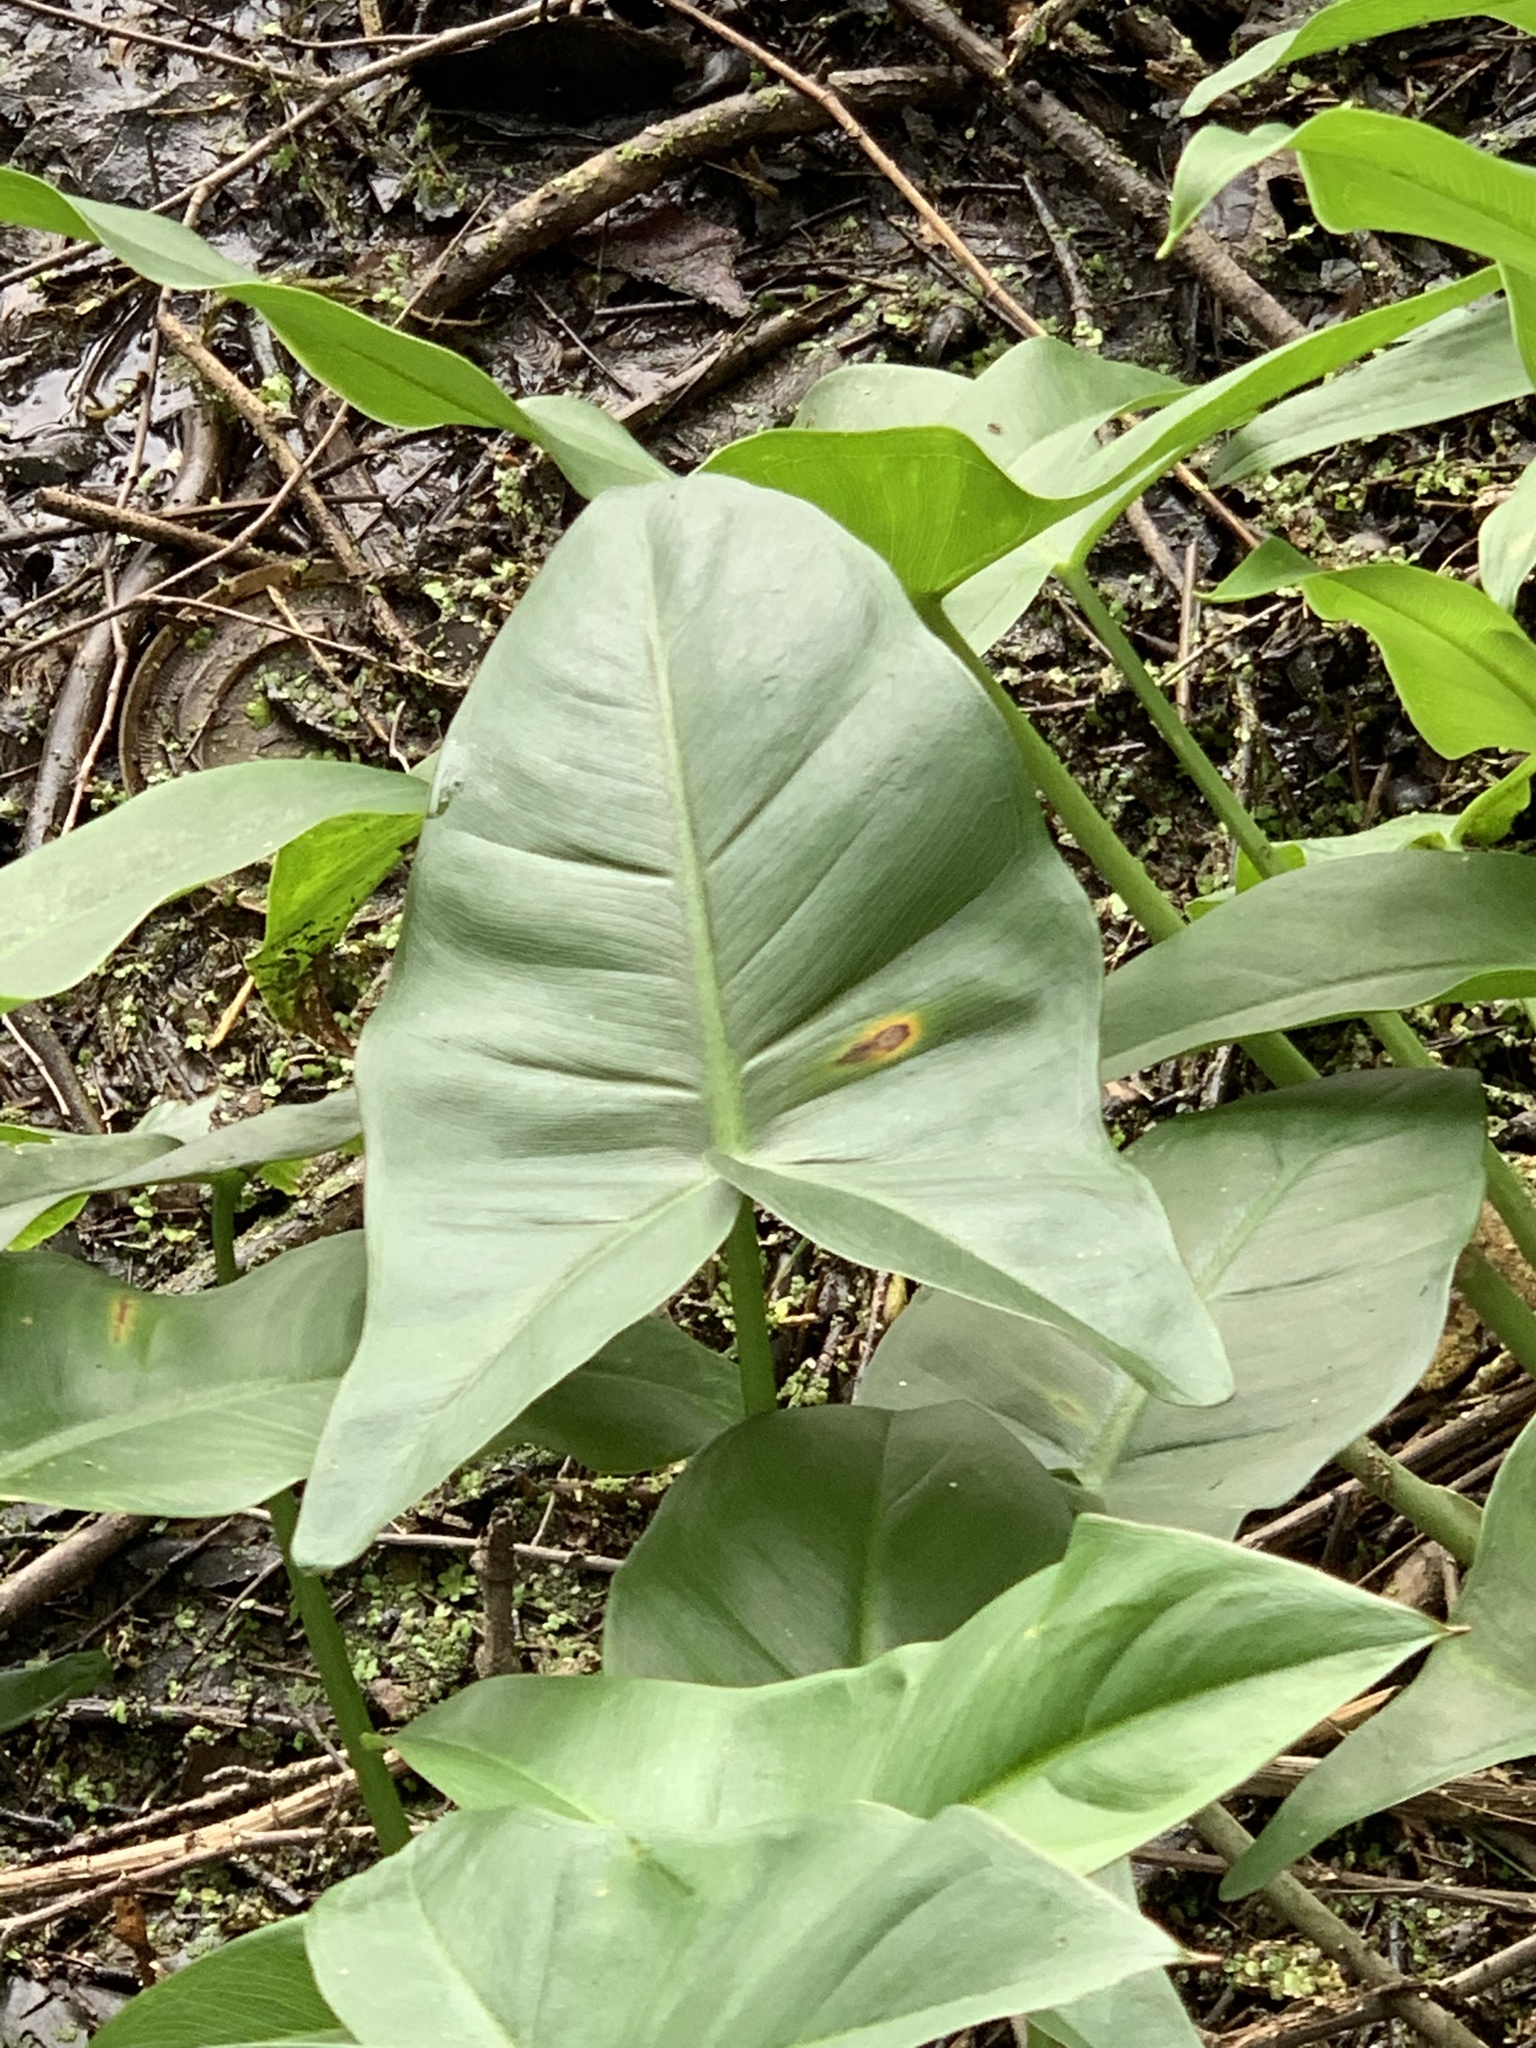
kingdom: Plantae
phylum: Tracheophyta
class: Liliopsida
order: Alismatales
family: Araceae
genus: Peltandra
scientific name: Peltandra virginica
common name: Arrow arum
